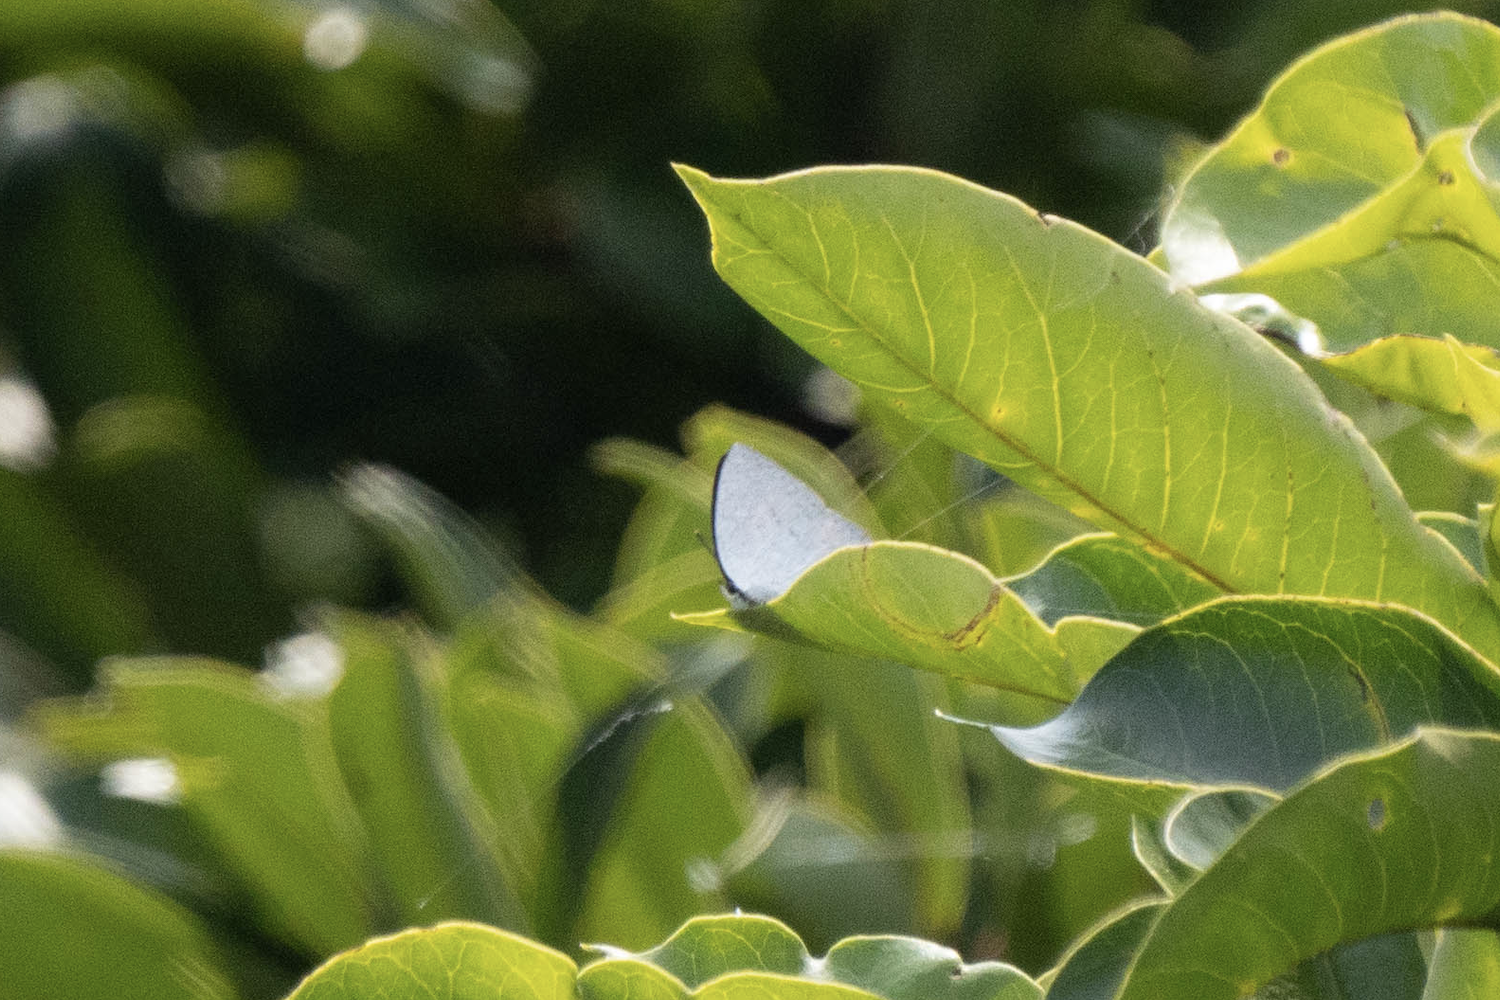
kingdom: Animalia
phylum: Arthropoda
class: Insecta
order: Lepidoptera
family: Lycaenidae
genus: Curetis
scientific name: Curetis acuta
